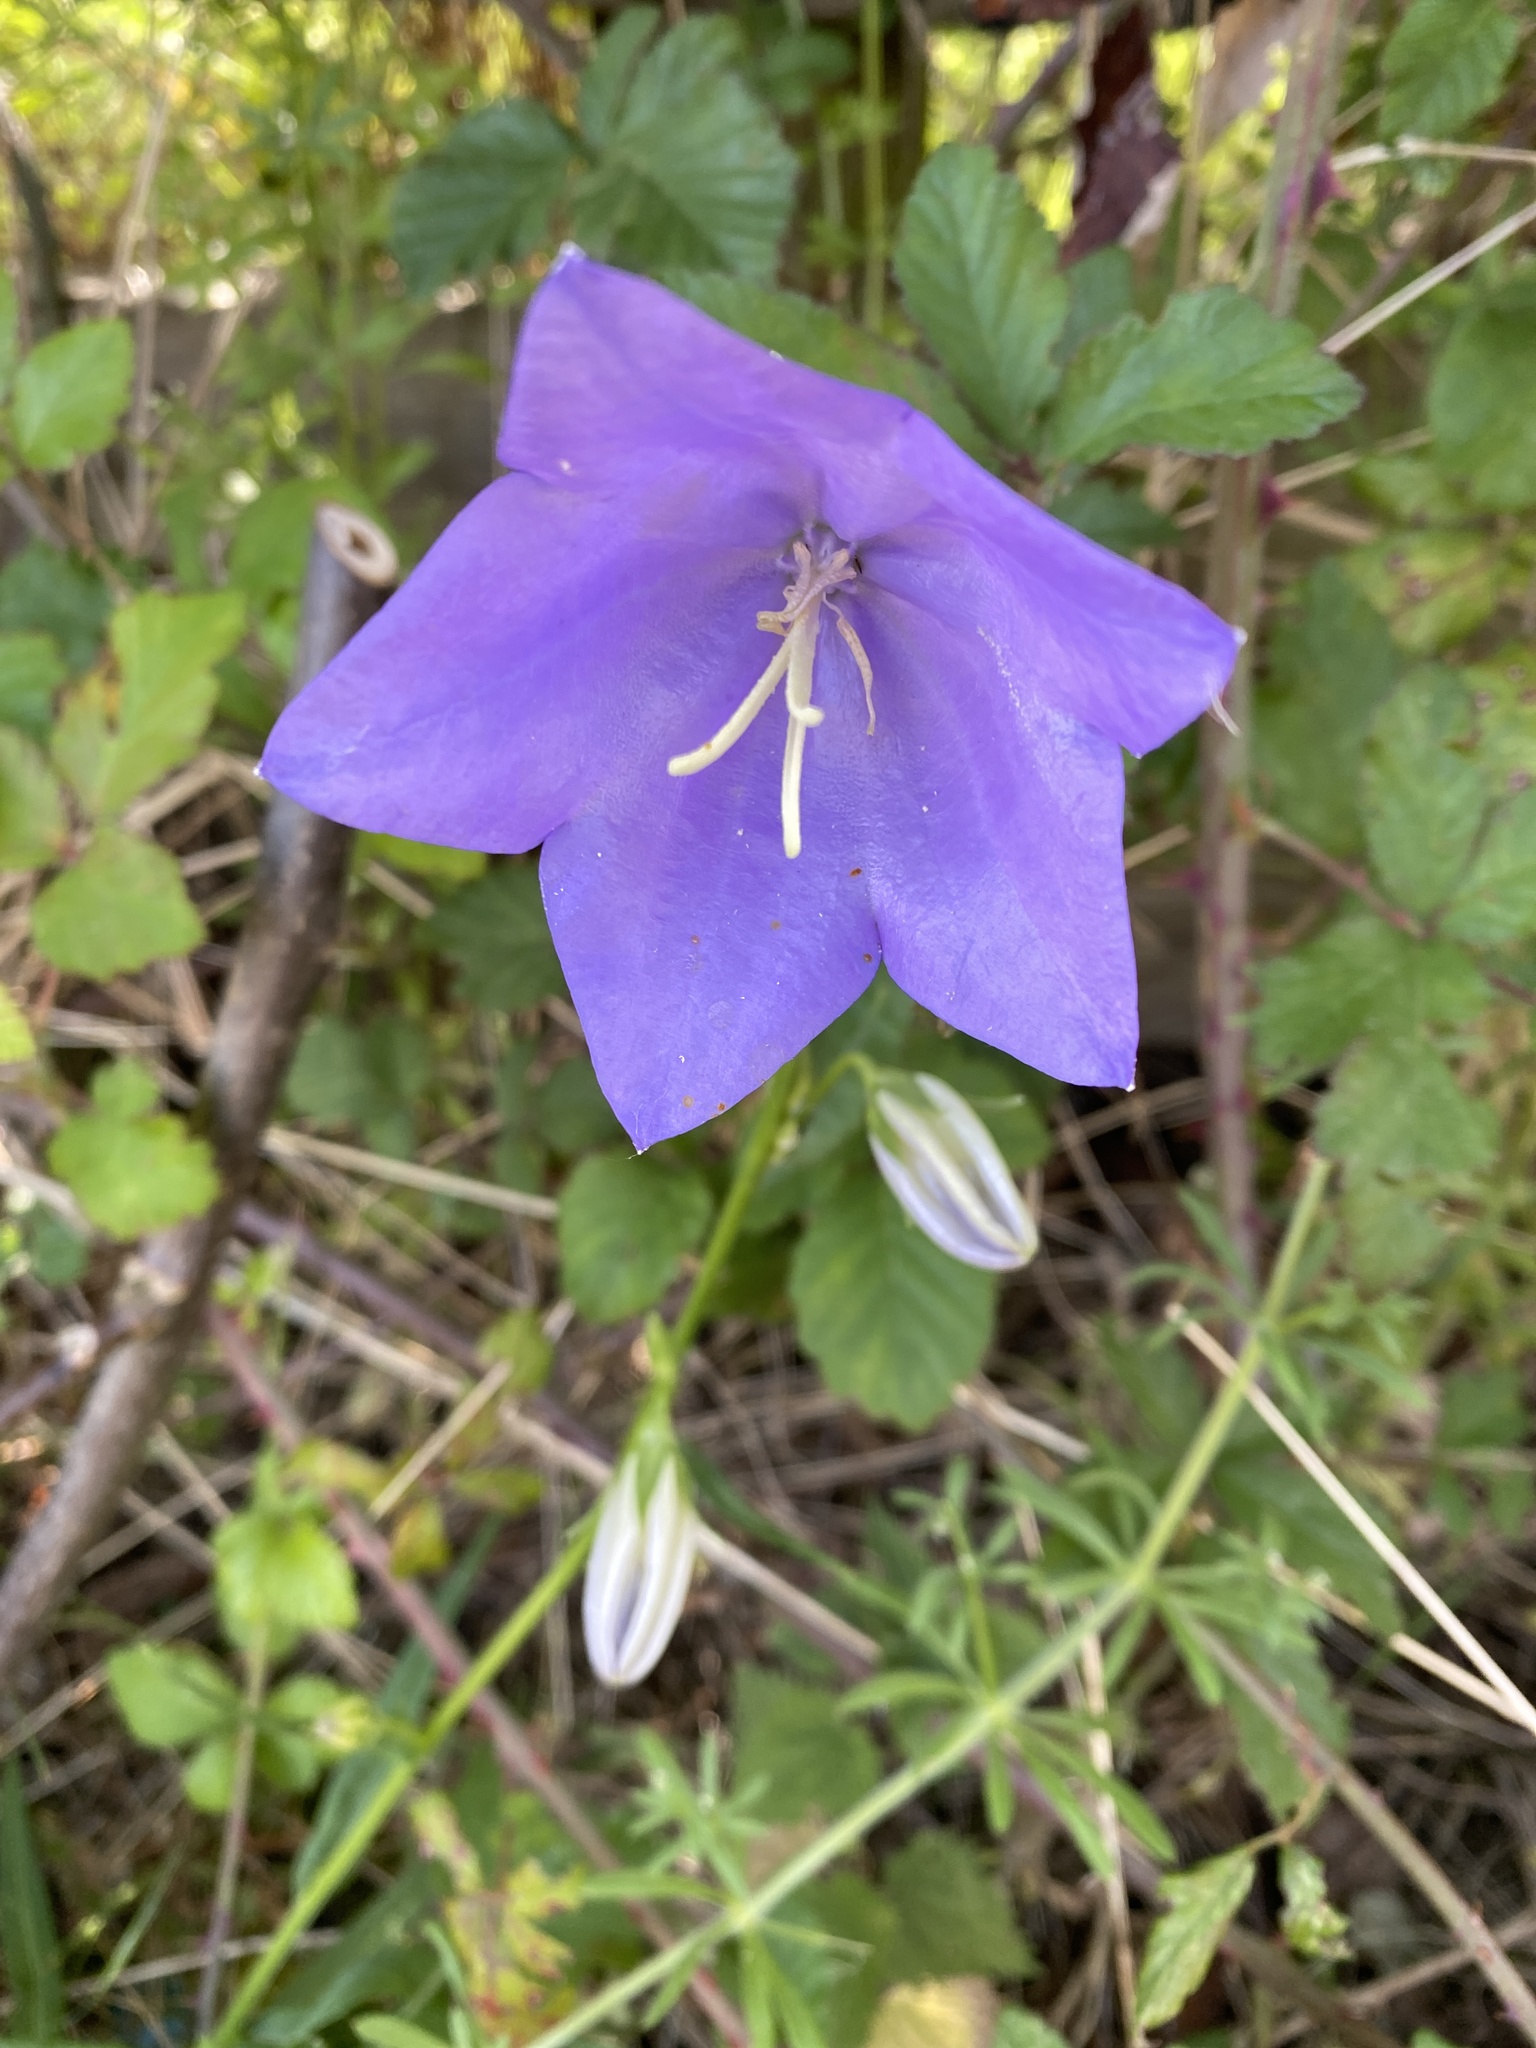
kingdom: Plantae
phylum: Tracheophyta
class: Magnoliopsida
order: Asterales
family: Campanulaceae
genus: Campanula
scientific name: Campanula persicifolia
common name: Peach-leaved bellflower
